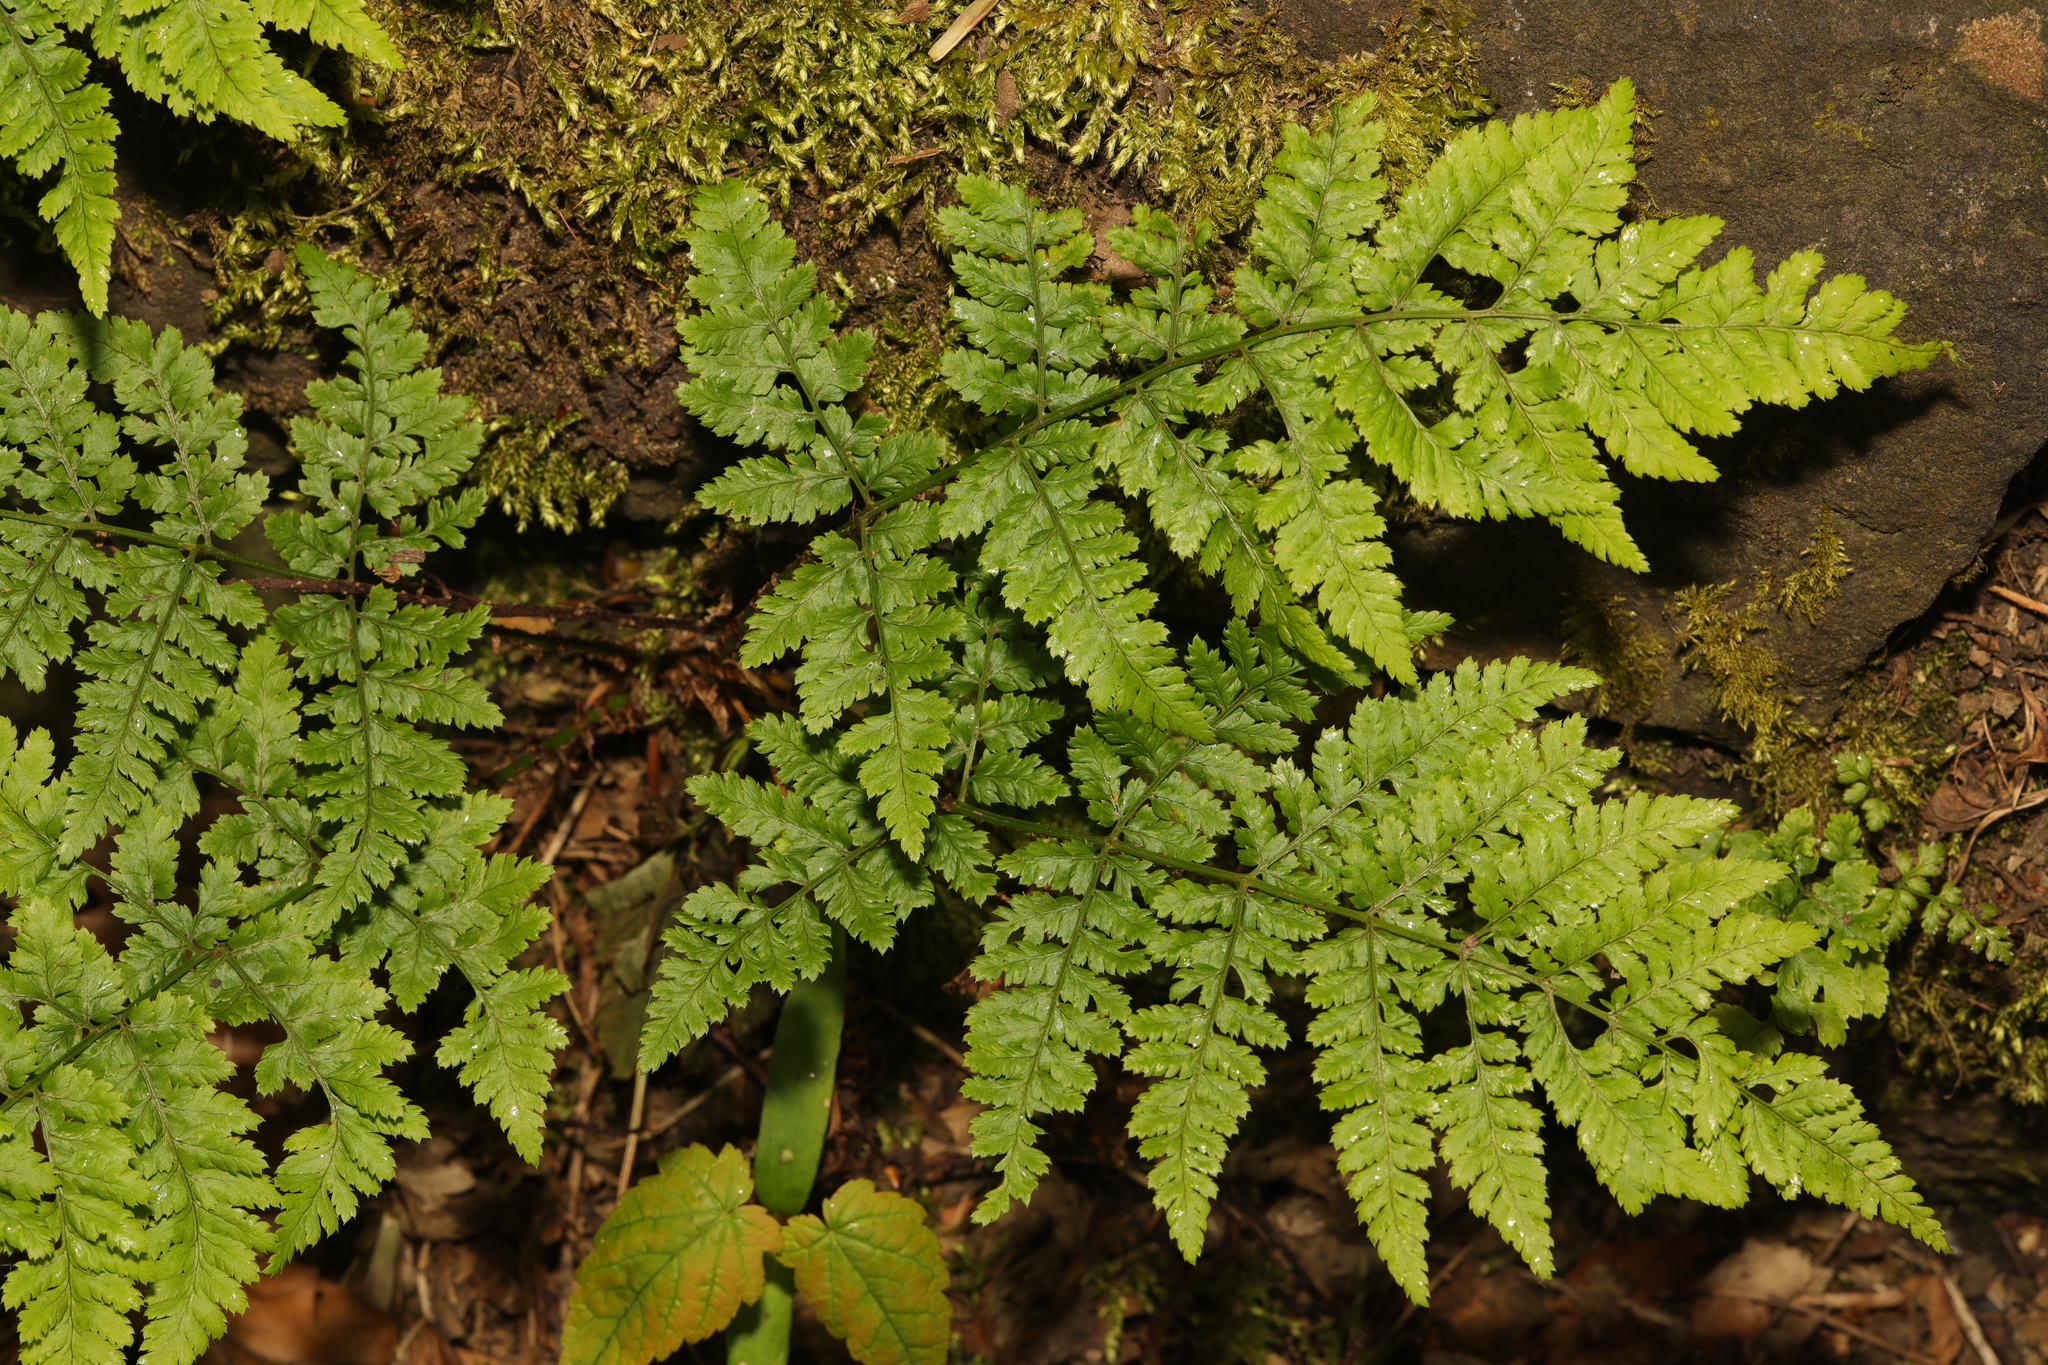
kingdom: Plantae
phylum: Tracheophyta
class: Polypodiopsida
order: Polypodiales
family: Dryopteridaceae
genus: Dryopteris
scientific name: Dryopteris dilatata
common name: Broad buckler-fern
